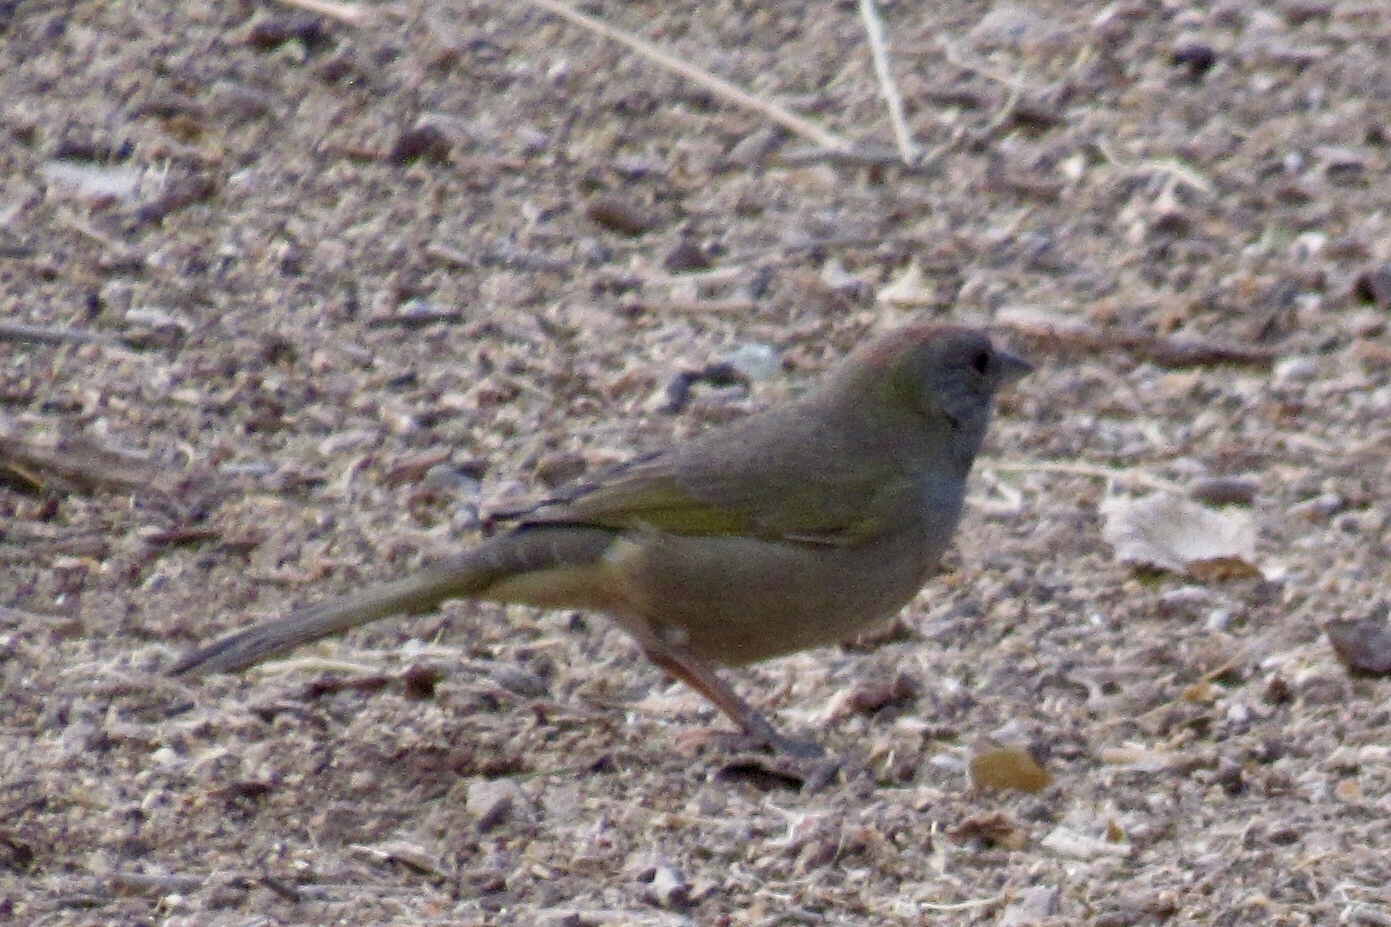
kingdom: Animalia
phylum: Chordata
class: Aves
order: Passeriformes
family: Passerellidae
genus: Pipilo
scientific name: Pipilo chlorurus
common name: Green-tailed towhee
